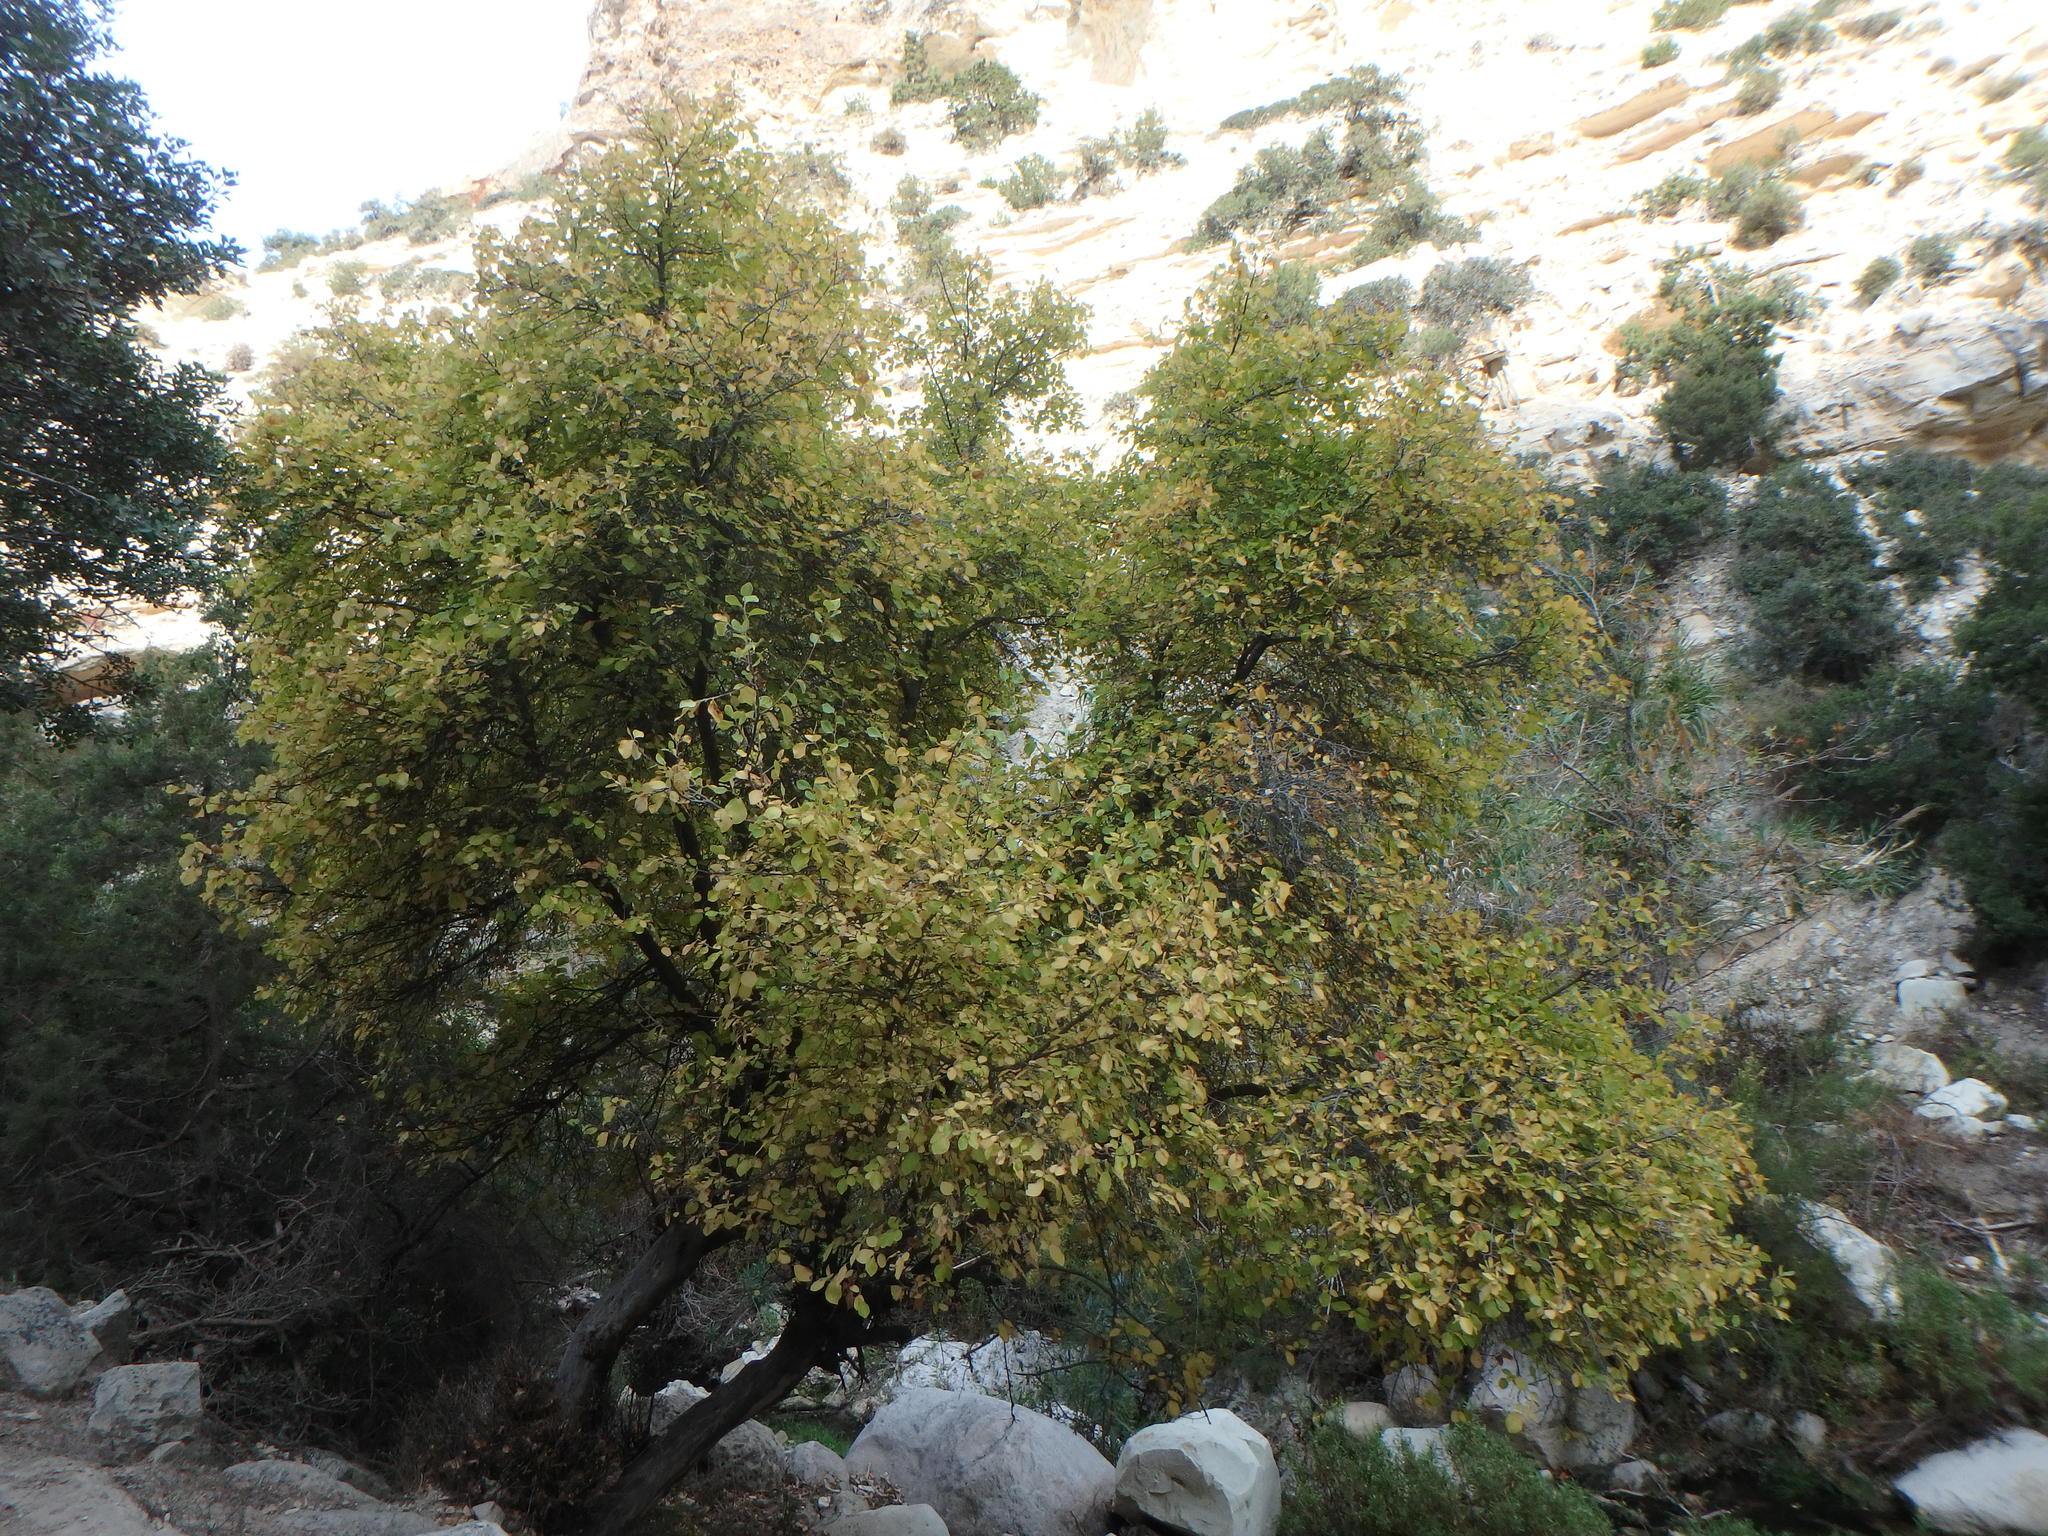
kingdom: Plantae
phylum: Tracheophyta
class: Magnoliopsida
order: Ericales
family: Styracaceae
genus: Styrax
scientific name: Styrax officinalis
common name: Storax
